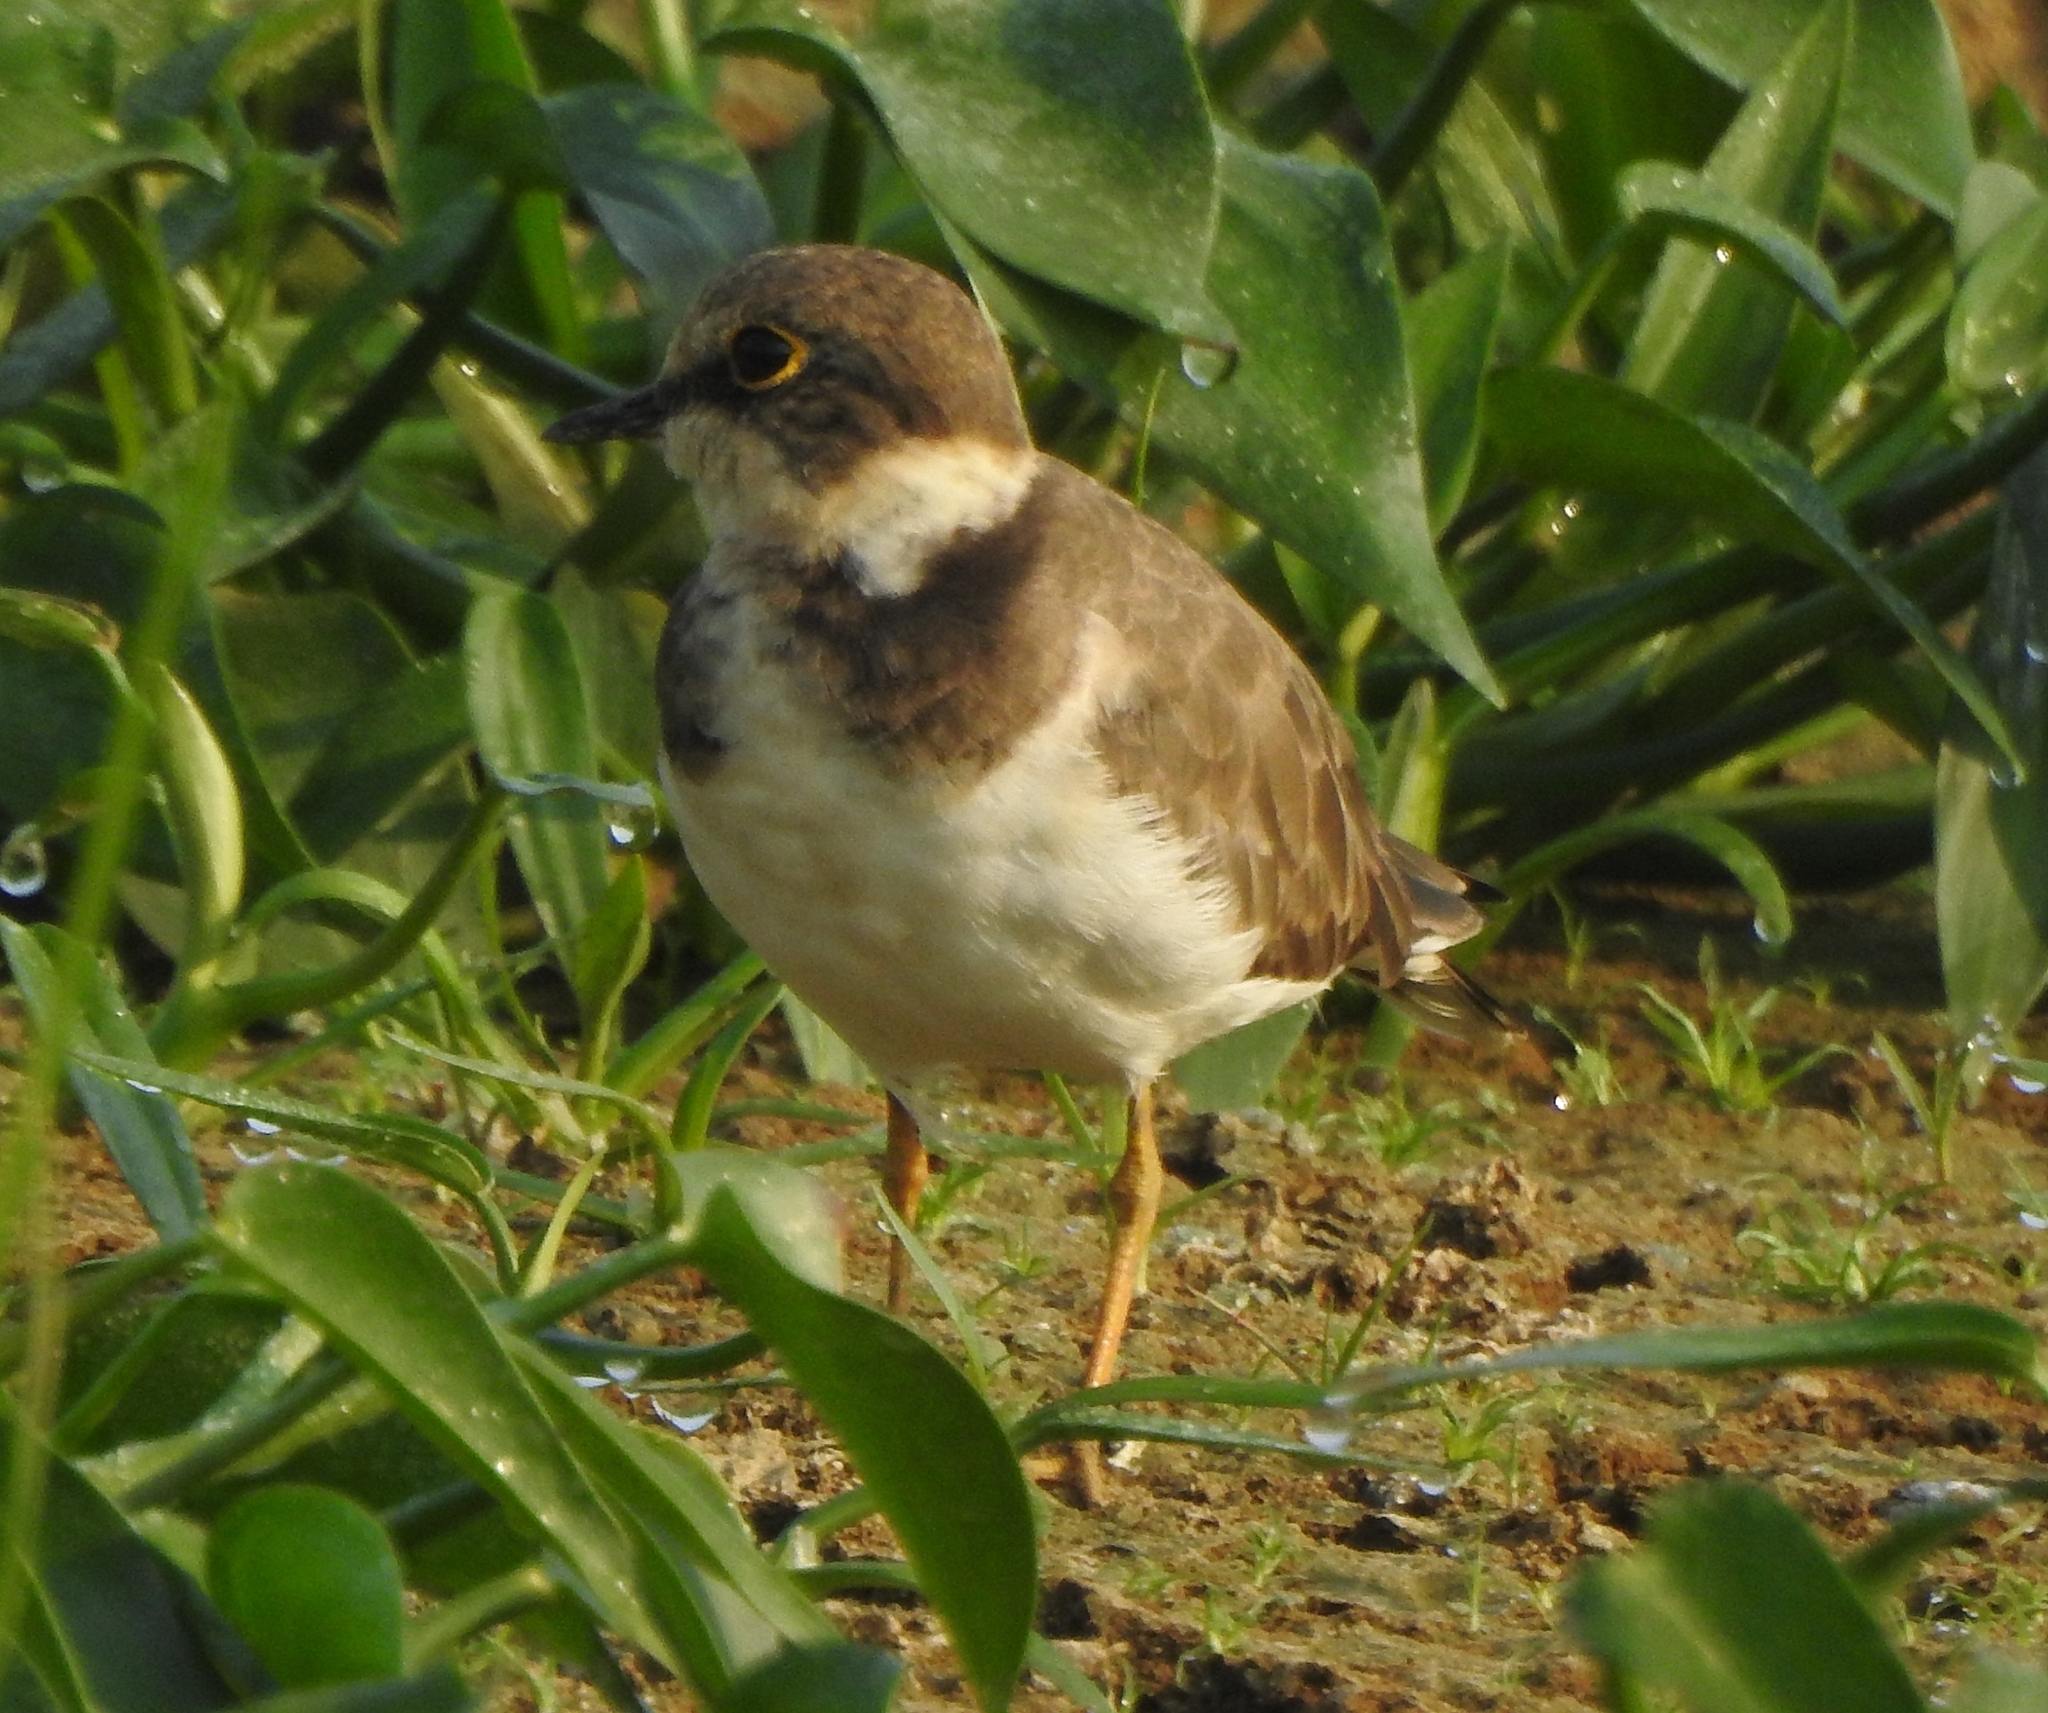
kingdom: Animalia
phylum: Chordata
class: Aves
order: Charadriiformes
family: Charadriidae
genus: Charadrius
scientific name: Charadrius dubius
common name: Little ringed plover
